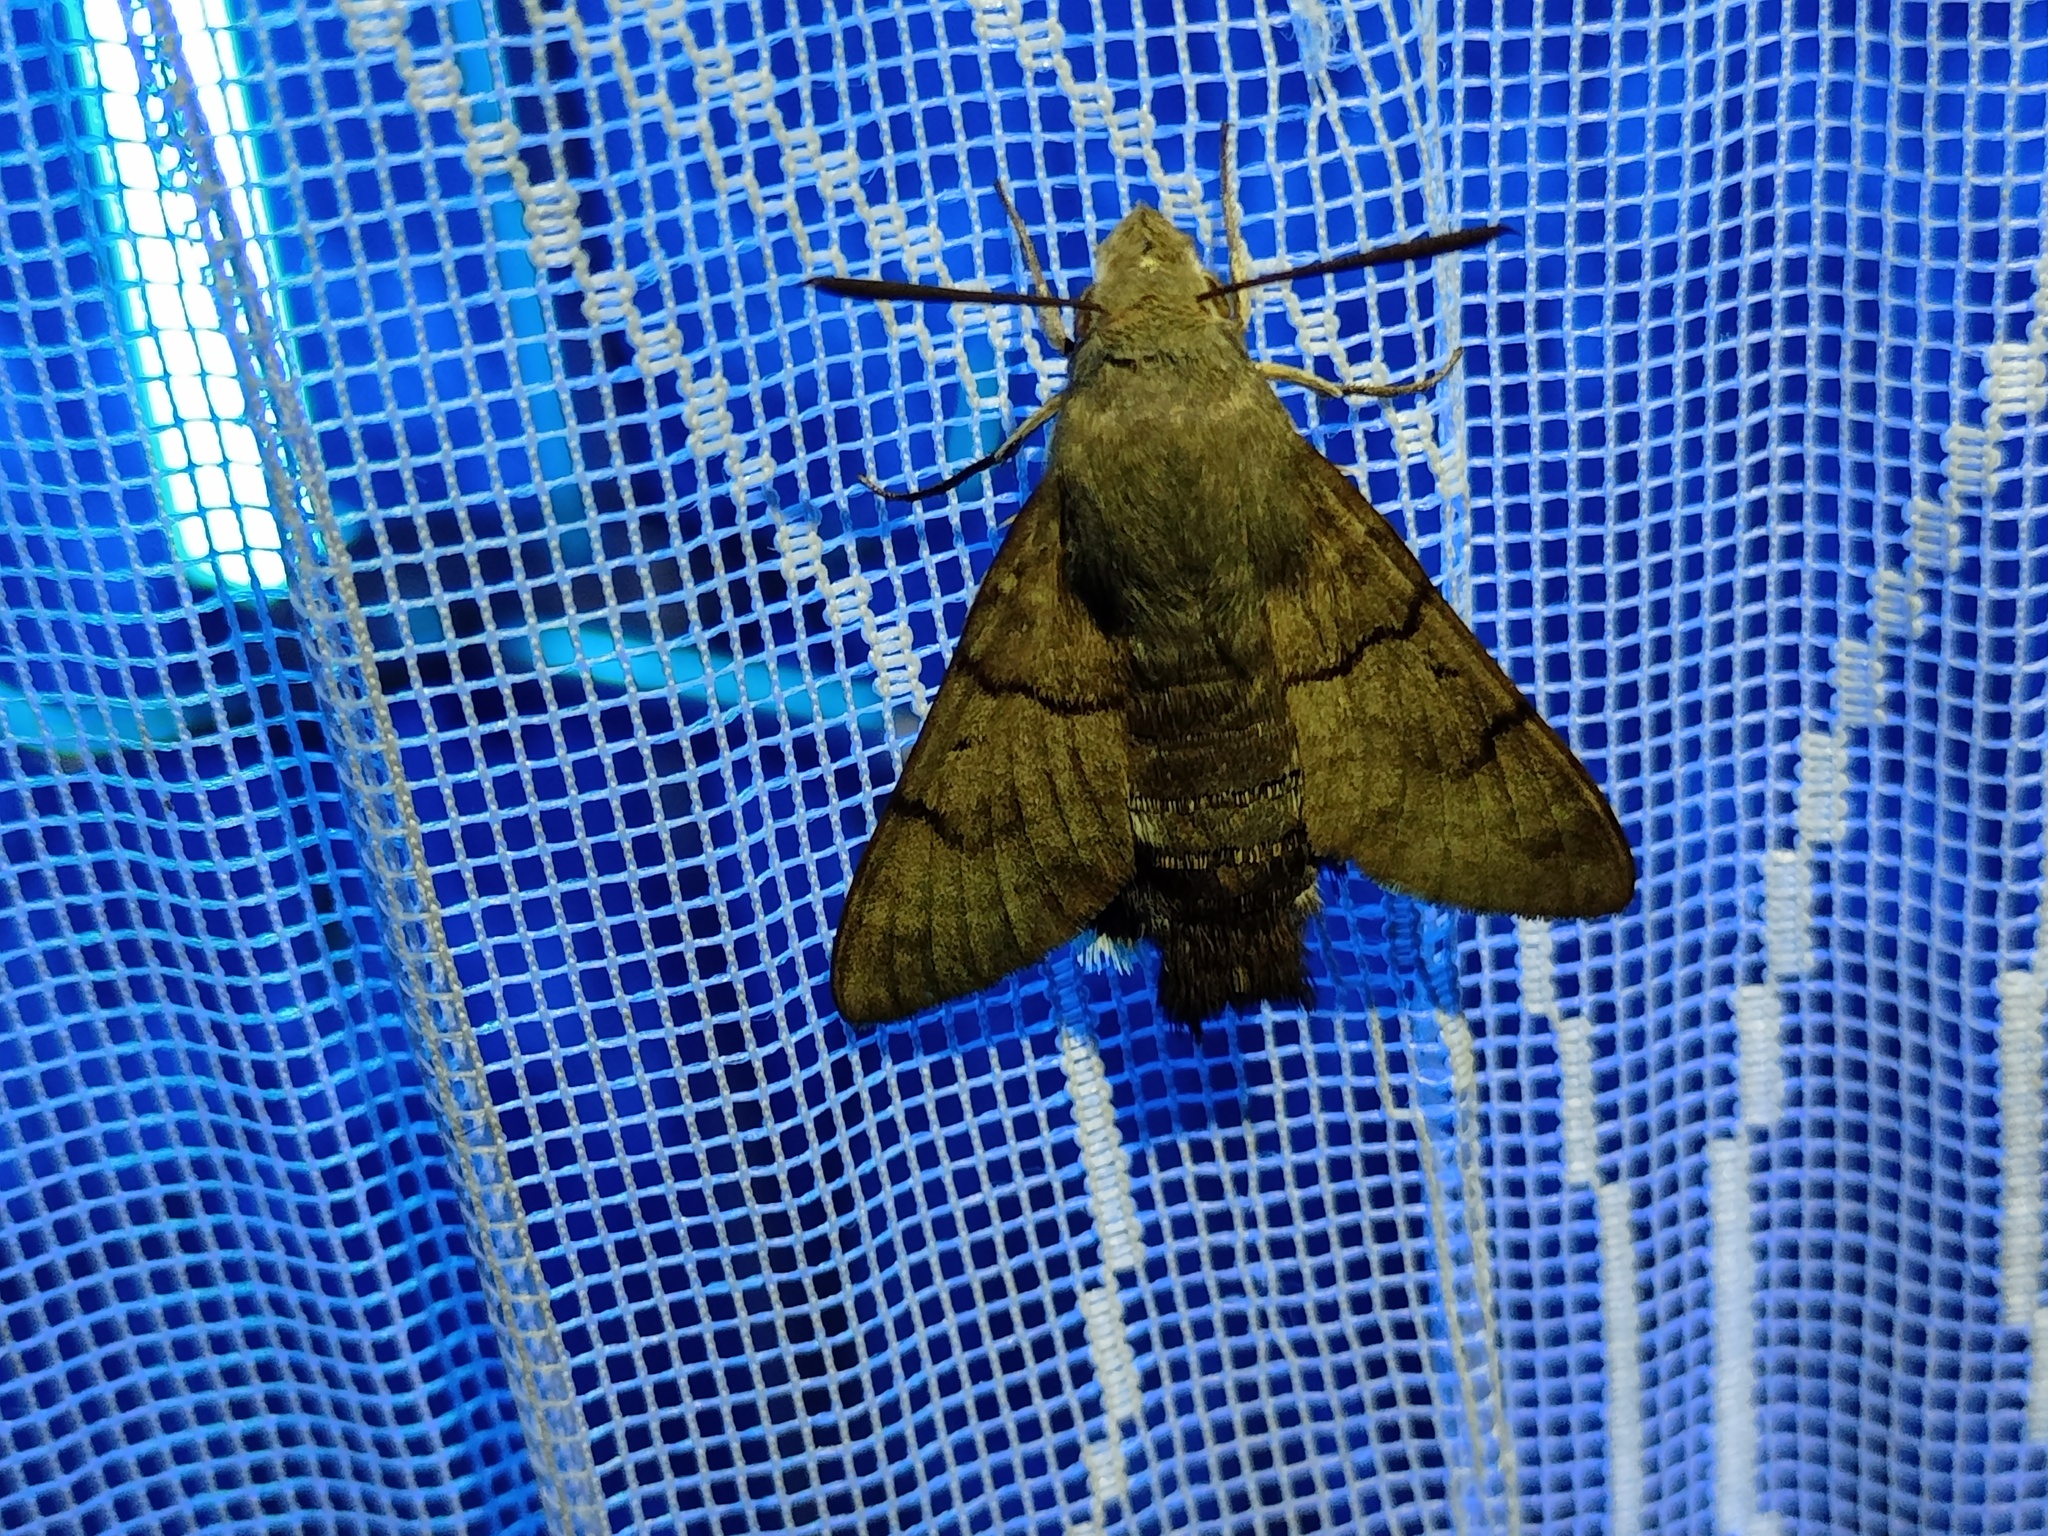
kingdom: Animalia
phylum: Arthropoda
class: Insecta
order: Lepidoptera
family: Sphingidae
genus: Macroglossum
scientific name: Macroglossum stellatarum
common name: Humming-bird hawk-moth
